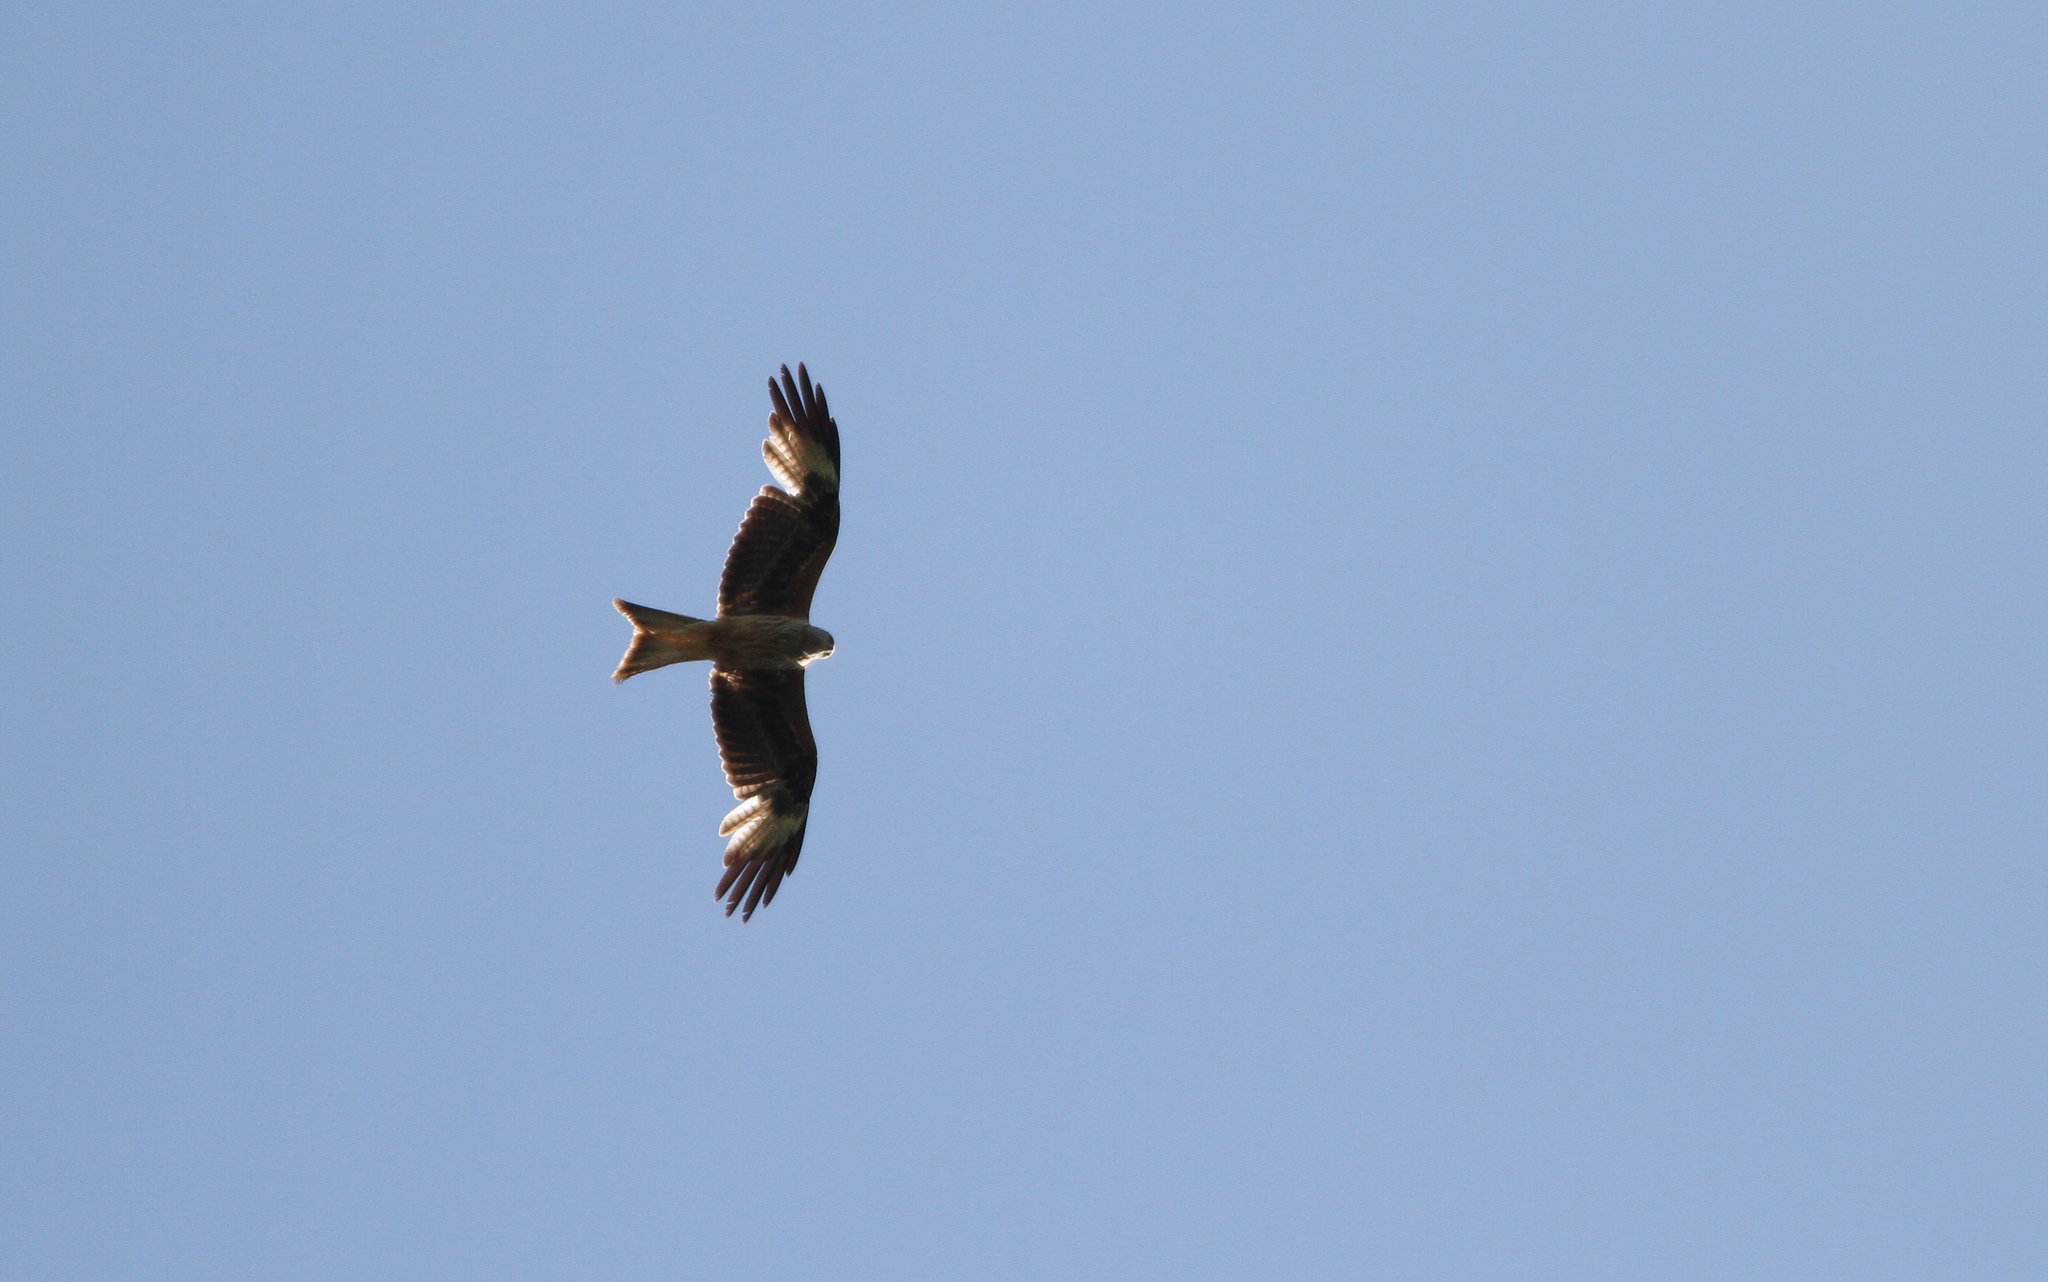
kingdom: Animalia
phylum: Chordata
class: Aves
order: Accipitriformes
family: Accipitridae
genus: Milvus
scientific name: Milvus milvus
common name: Red kite
